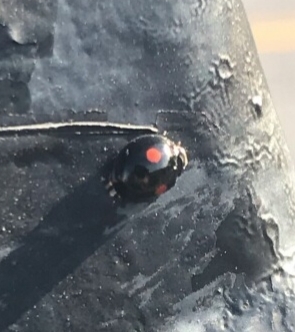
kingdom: Animalia
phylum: Arthropoda
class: Insecta
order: Coleoptera
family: Coccinellidae
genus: Chilocorus
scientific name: Chilocorus stigma
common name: Twicestabbed lady beetle
